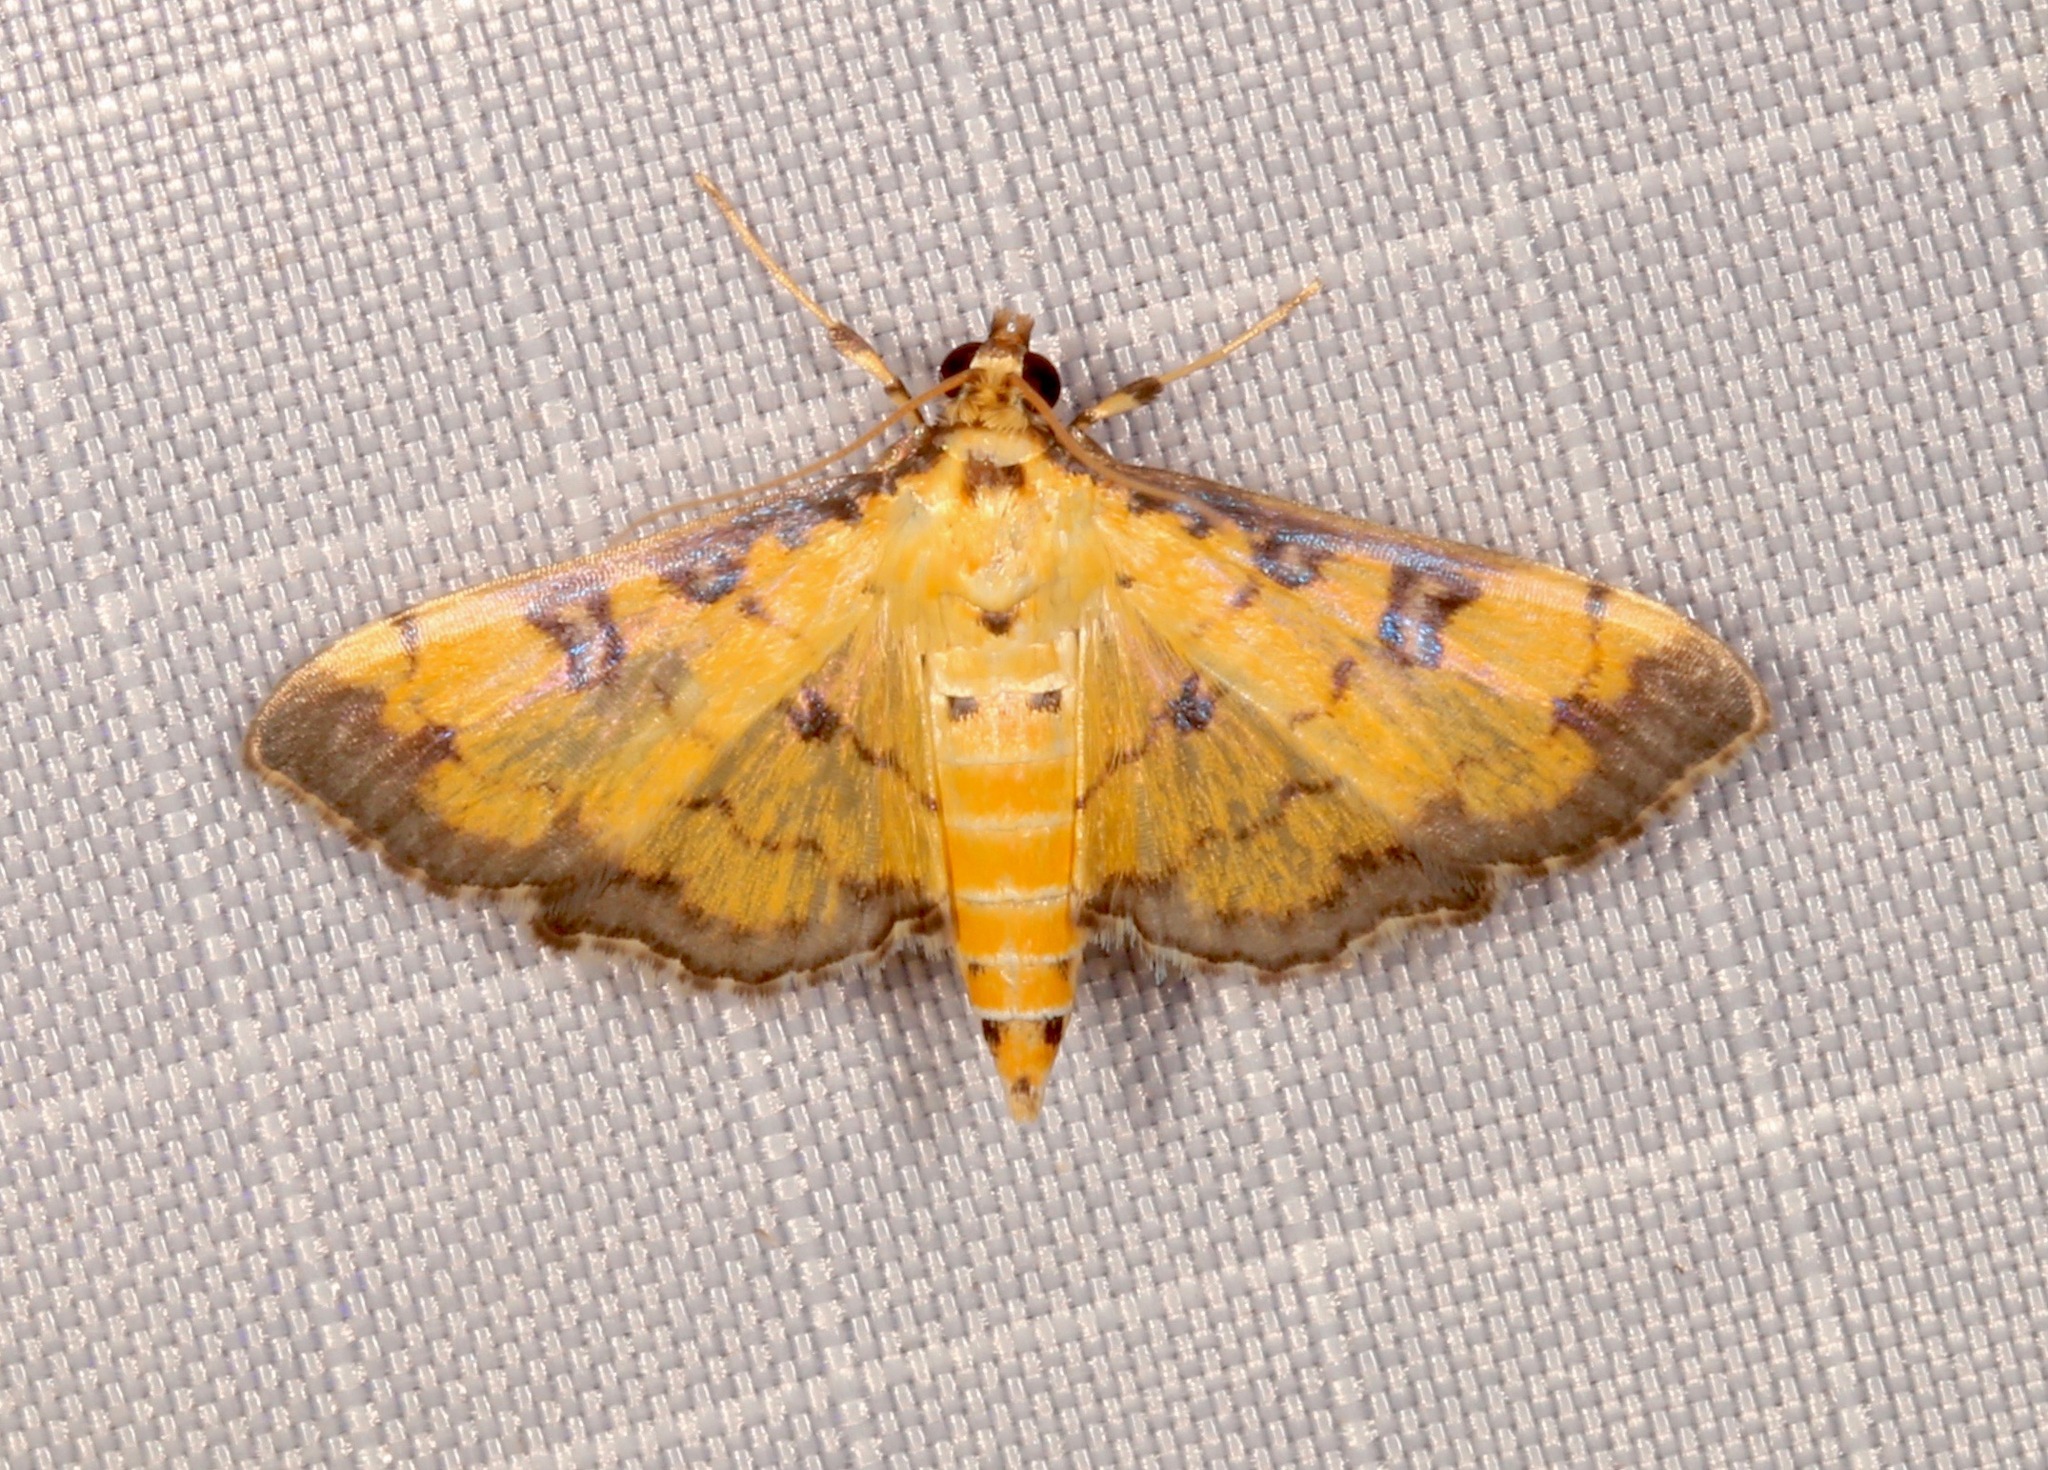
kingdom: Animalia
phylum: Arthropoda
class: Insecta
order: Lepidoptera
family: Crambidae
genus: Ategumia
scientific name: Ategumia ebulealis
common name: Moth
